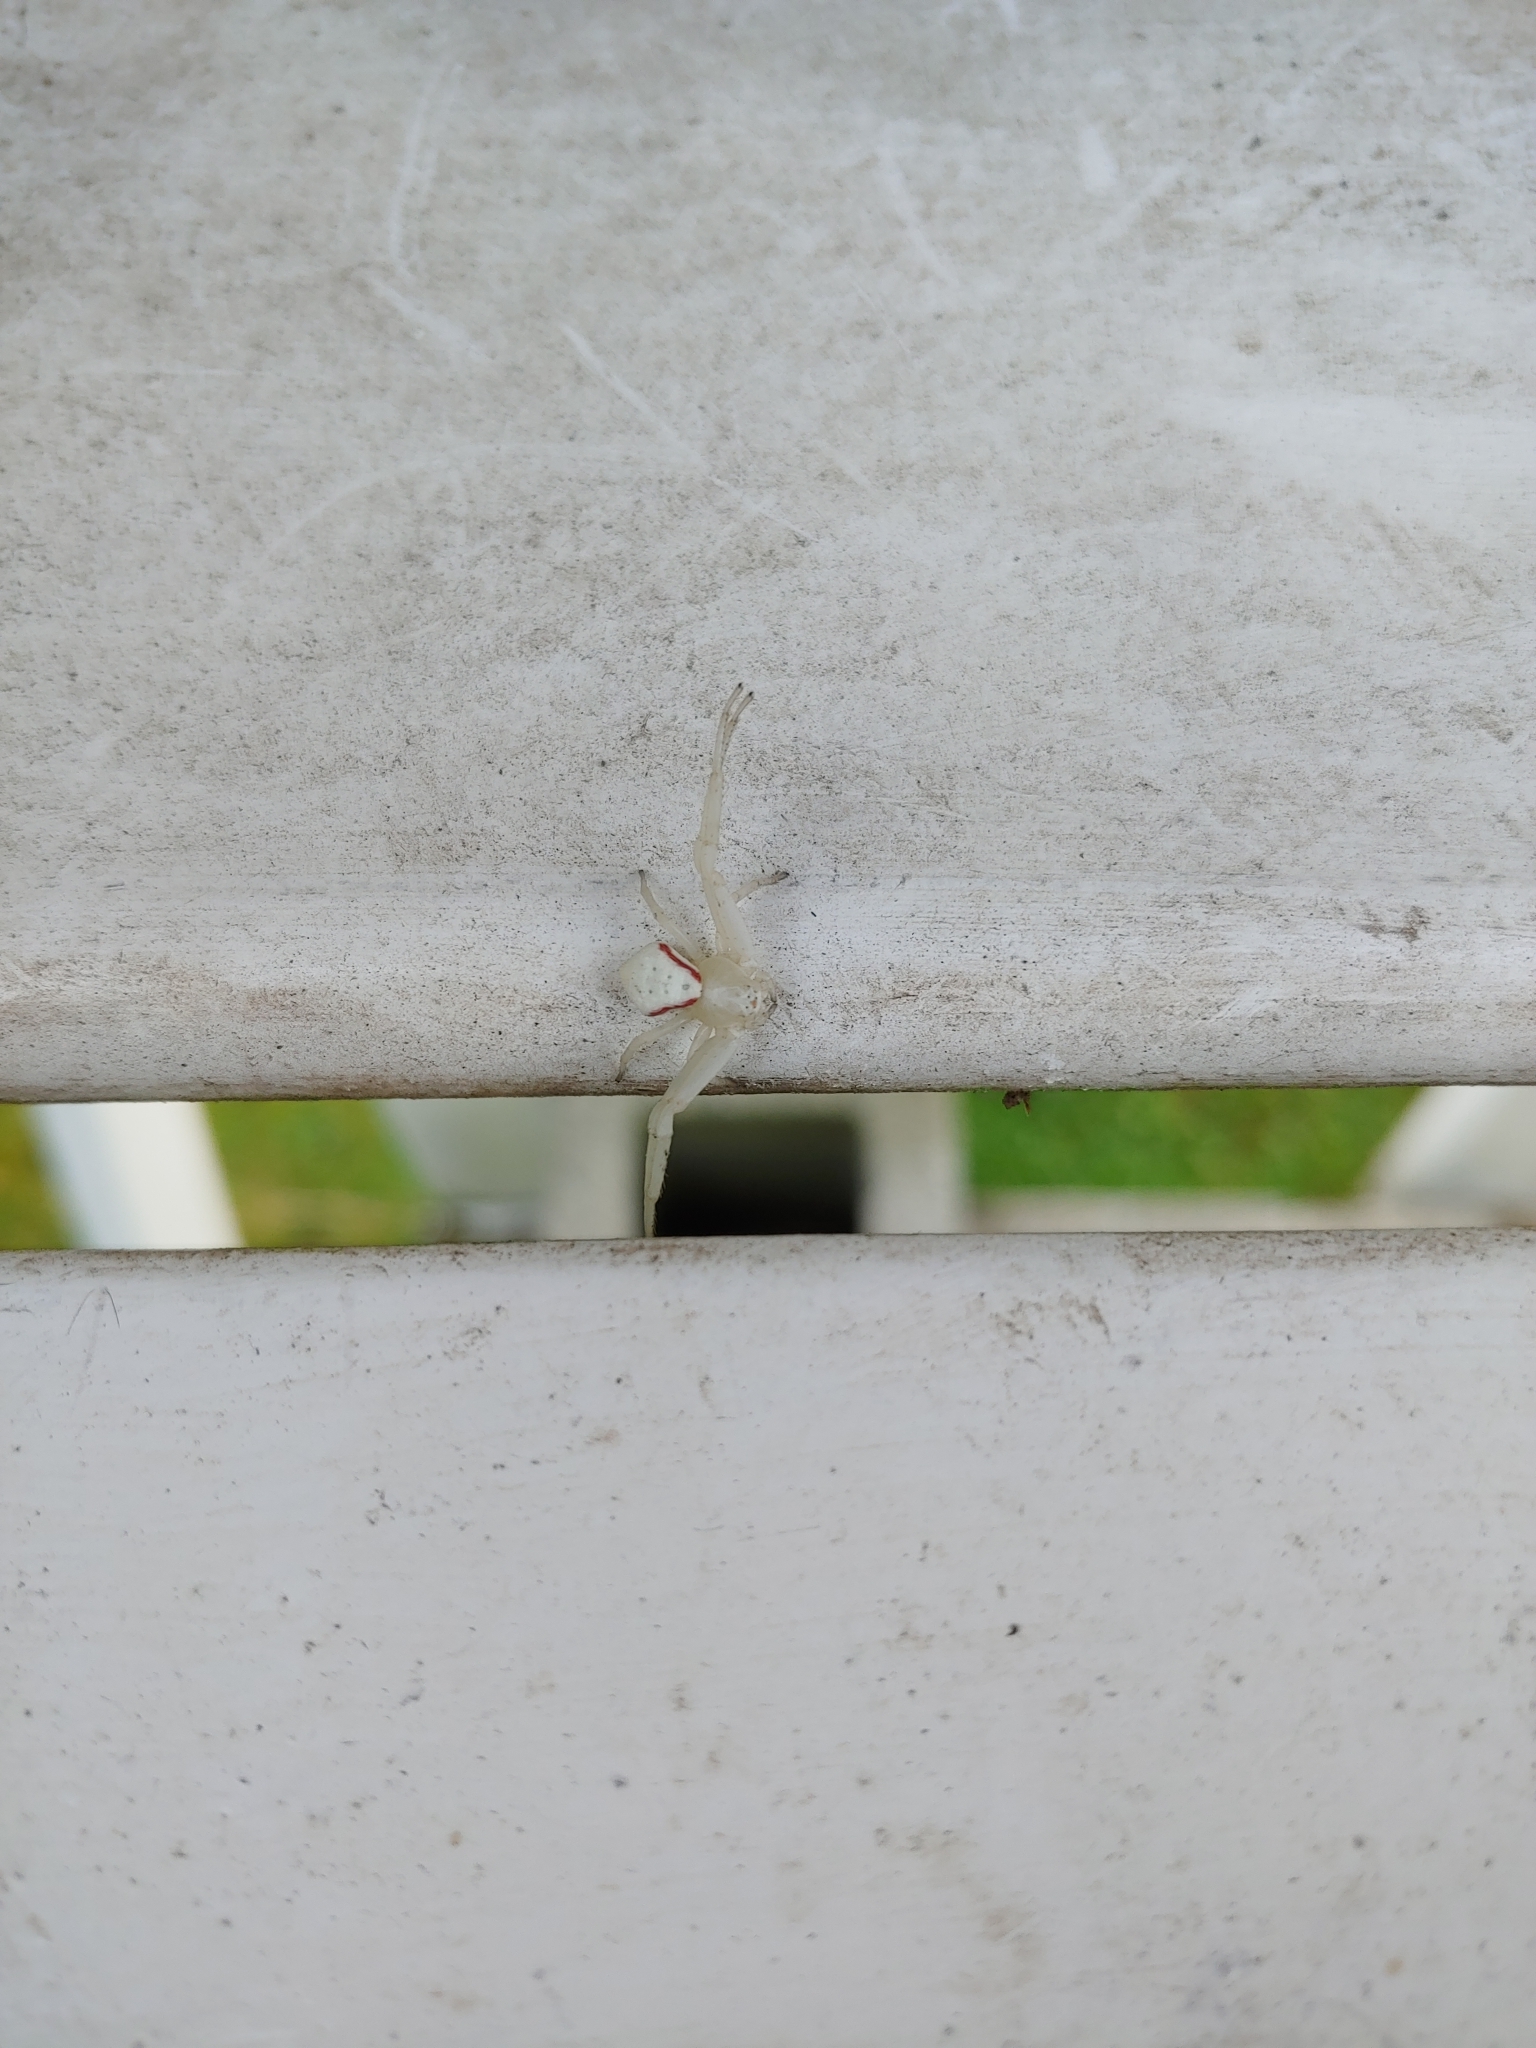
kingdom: Animalia
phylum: Arthropoda
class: Arachnida
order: Araneae
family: Thomisidae
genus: Misumena
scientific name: Misumena vatia
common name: Goldenrod crab spider
